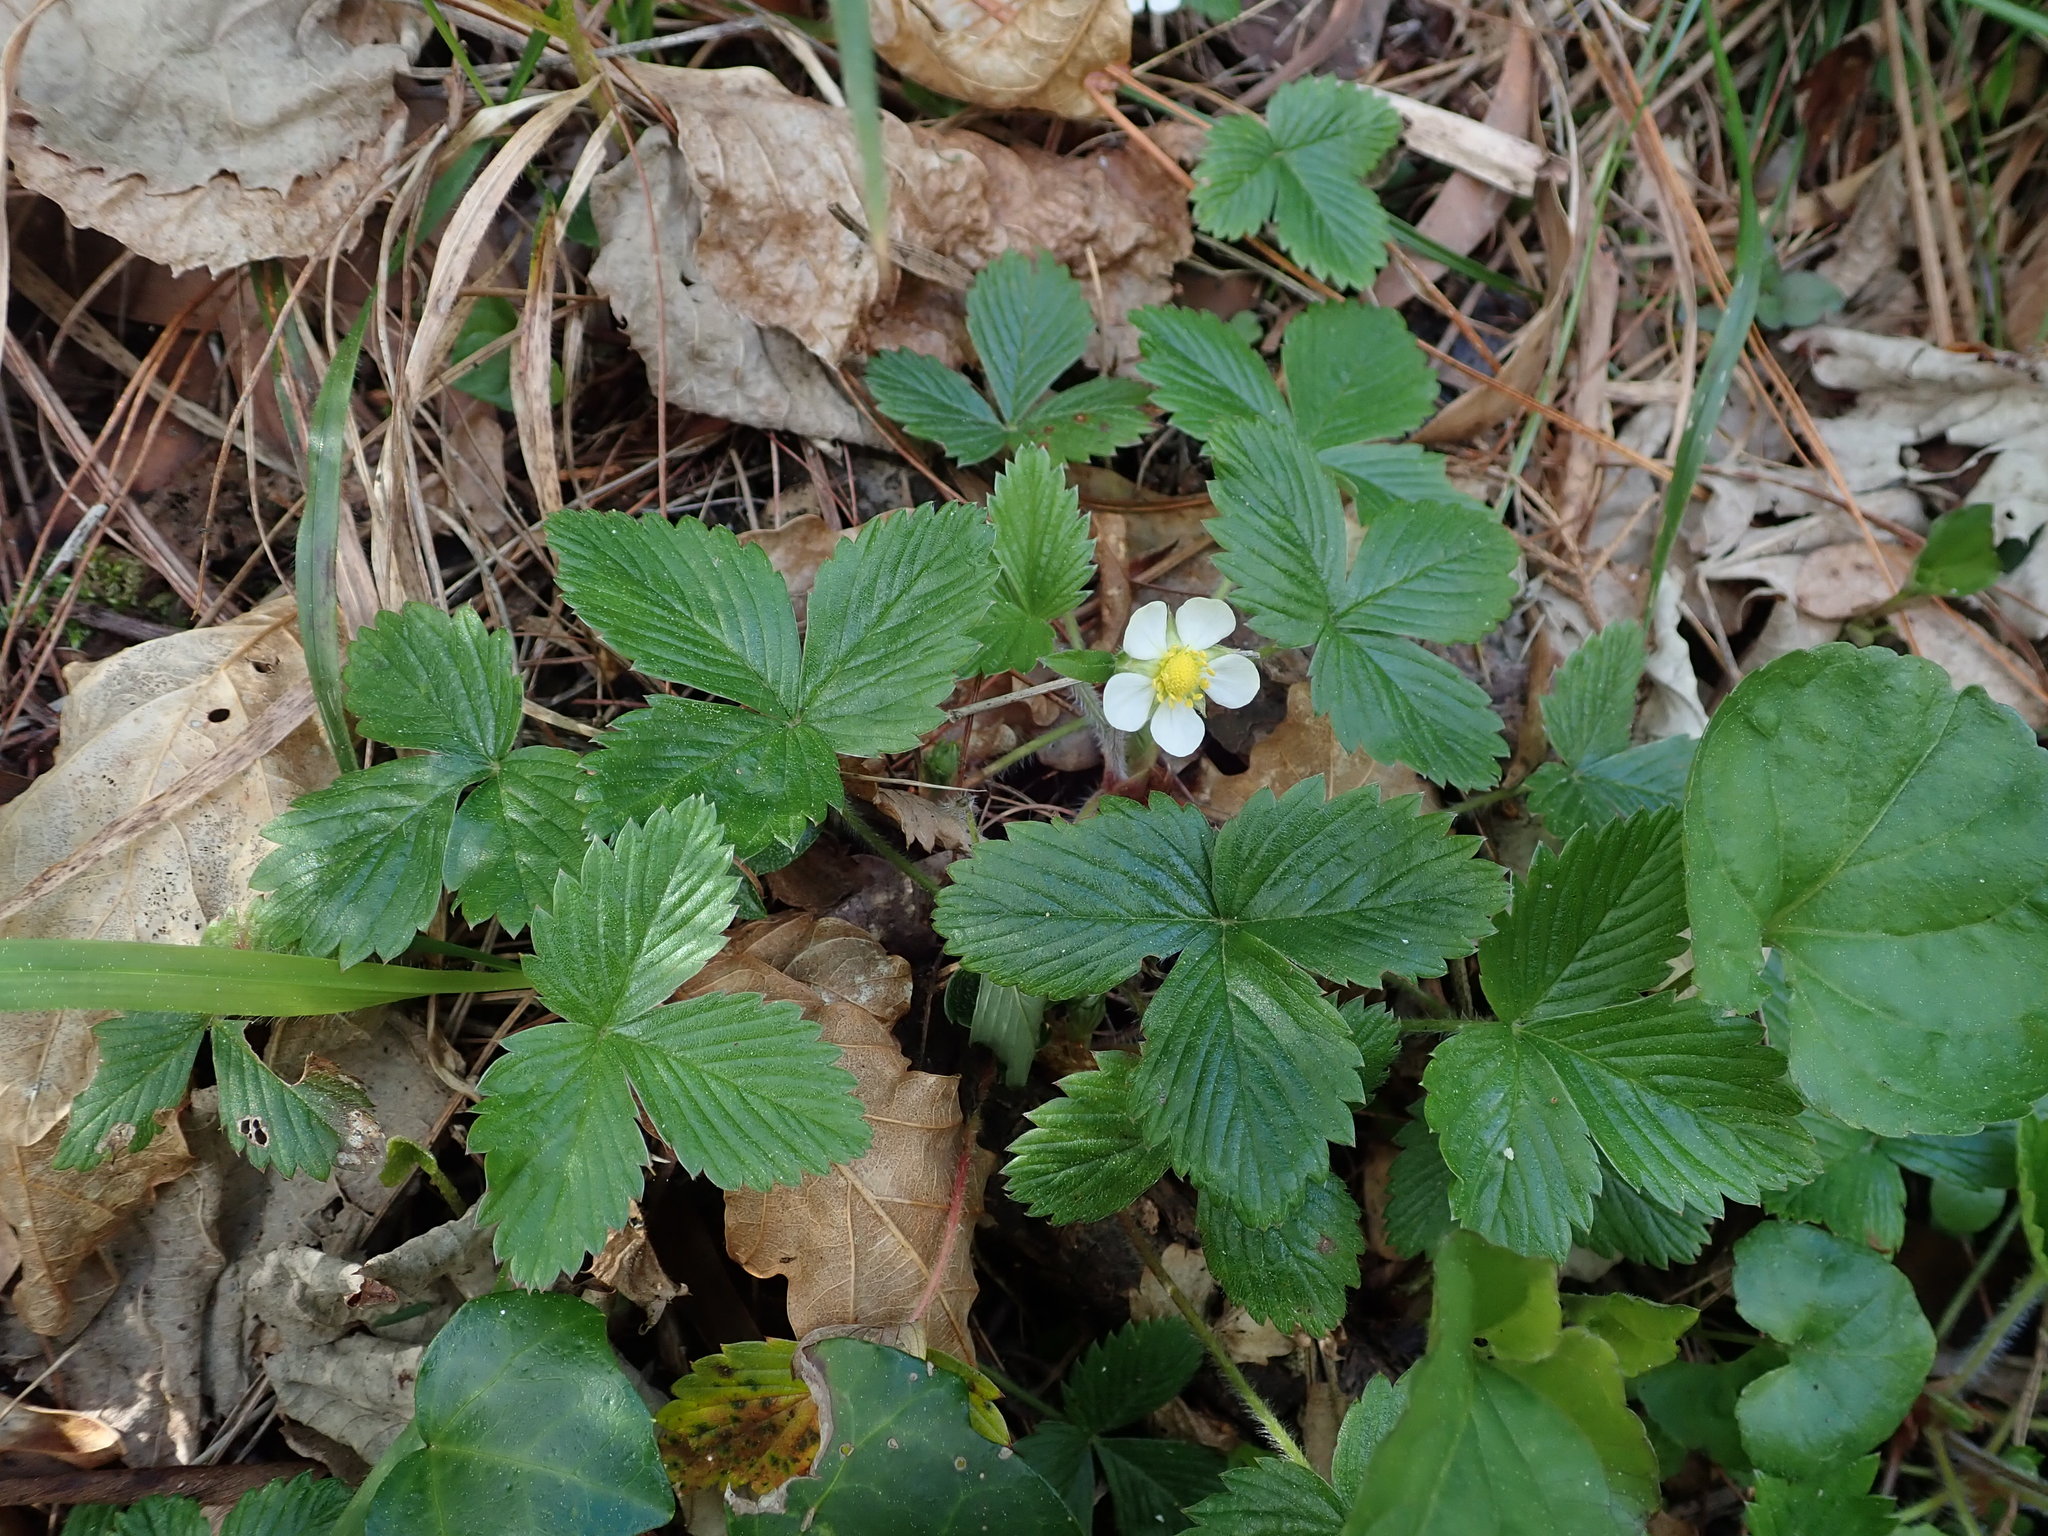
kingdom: Plantae
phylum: Tracheophyta
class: Magnoliopsida
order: Rosales
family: Rosaceae
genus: Fragaria
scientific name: Fragaria vesca
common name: Wild strawberry
